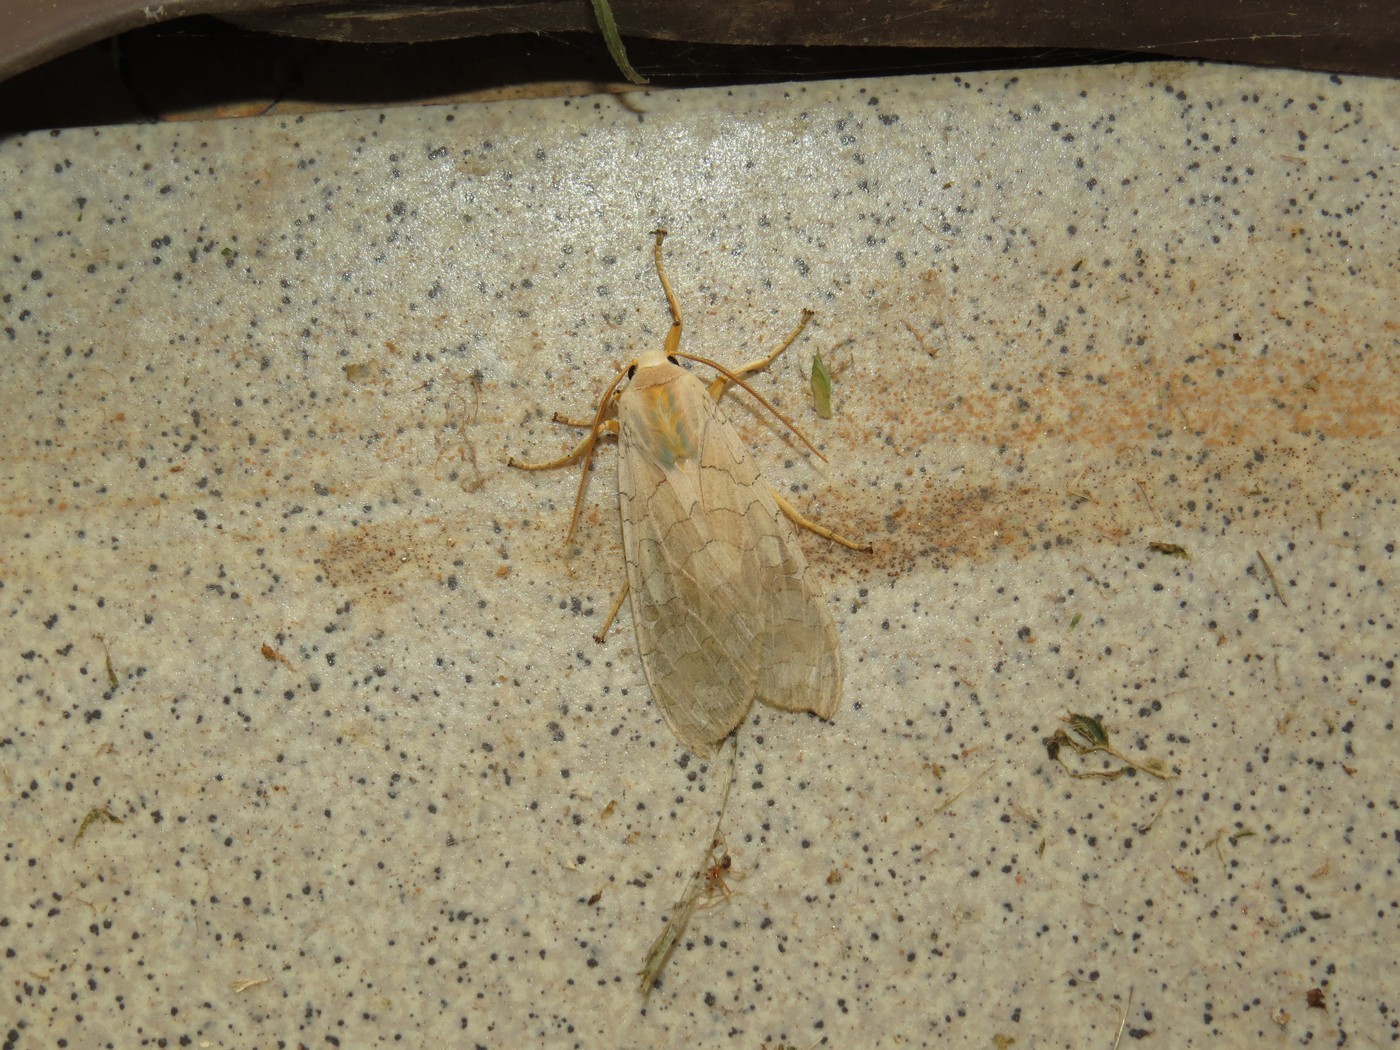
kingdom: Animalia
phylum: Arthropoda
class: Insecta
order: Lepidoptera
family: Erebidae
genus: Halysidota
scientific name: Halysidota
